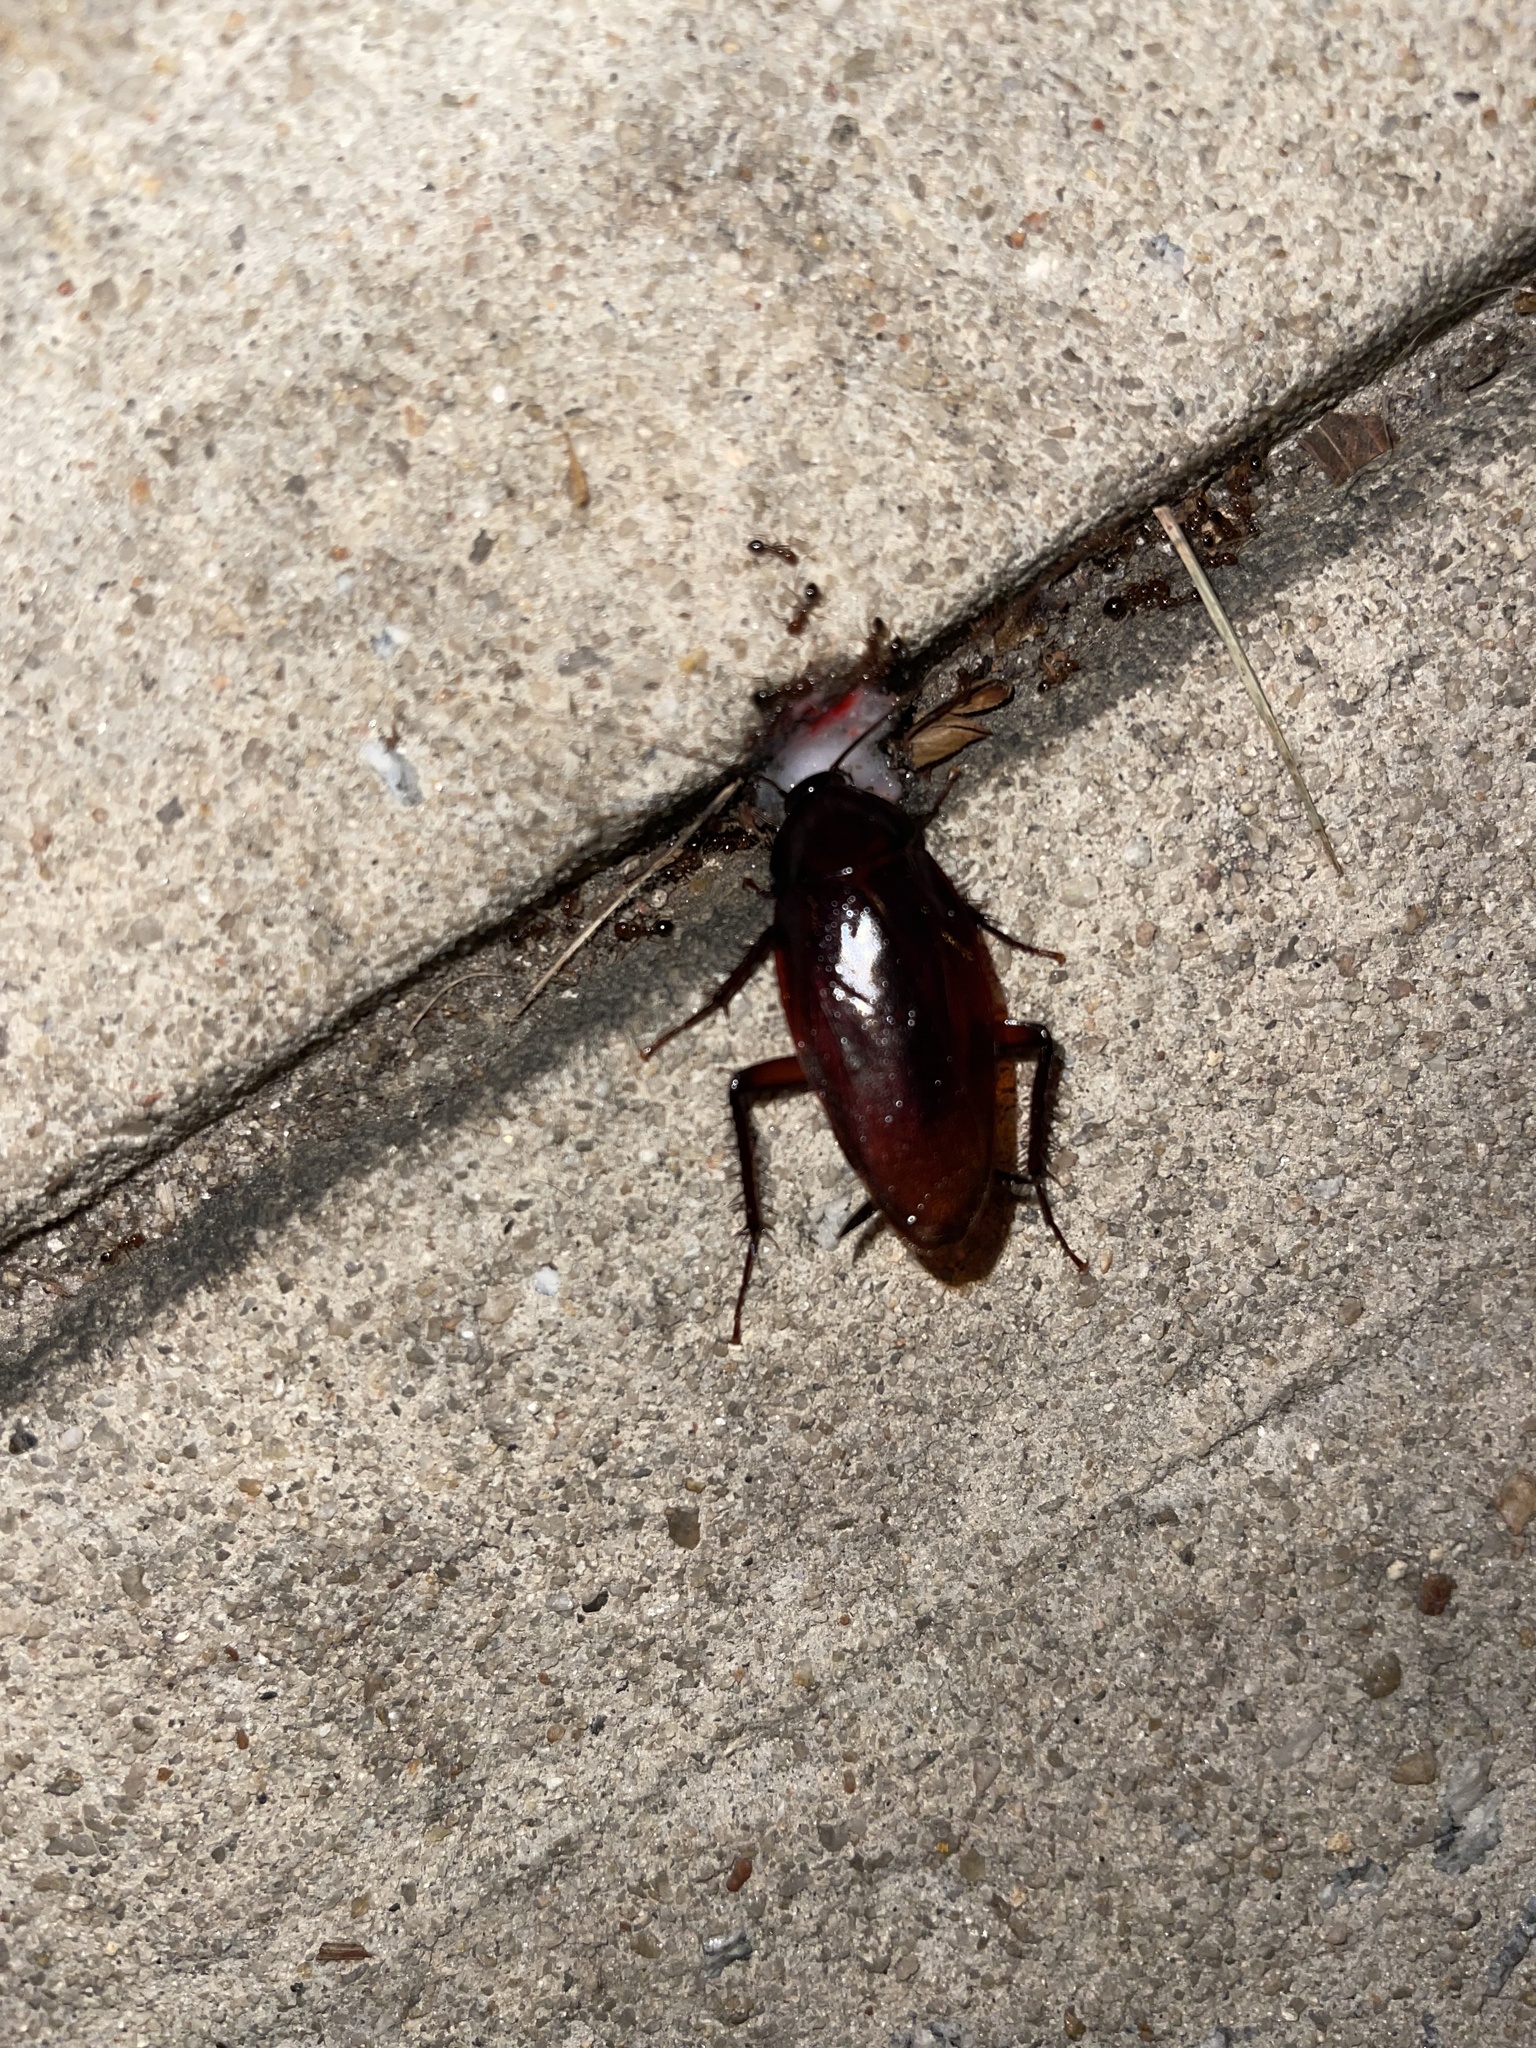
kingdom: Animalia
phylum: Arthropoda
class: Insecta
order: Blattodea
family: Blattidae
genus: Periplaneta
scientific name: Periplaneta fuliginosa
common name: Smokeybrown cockroad
